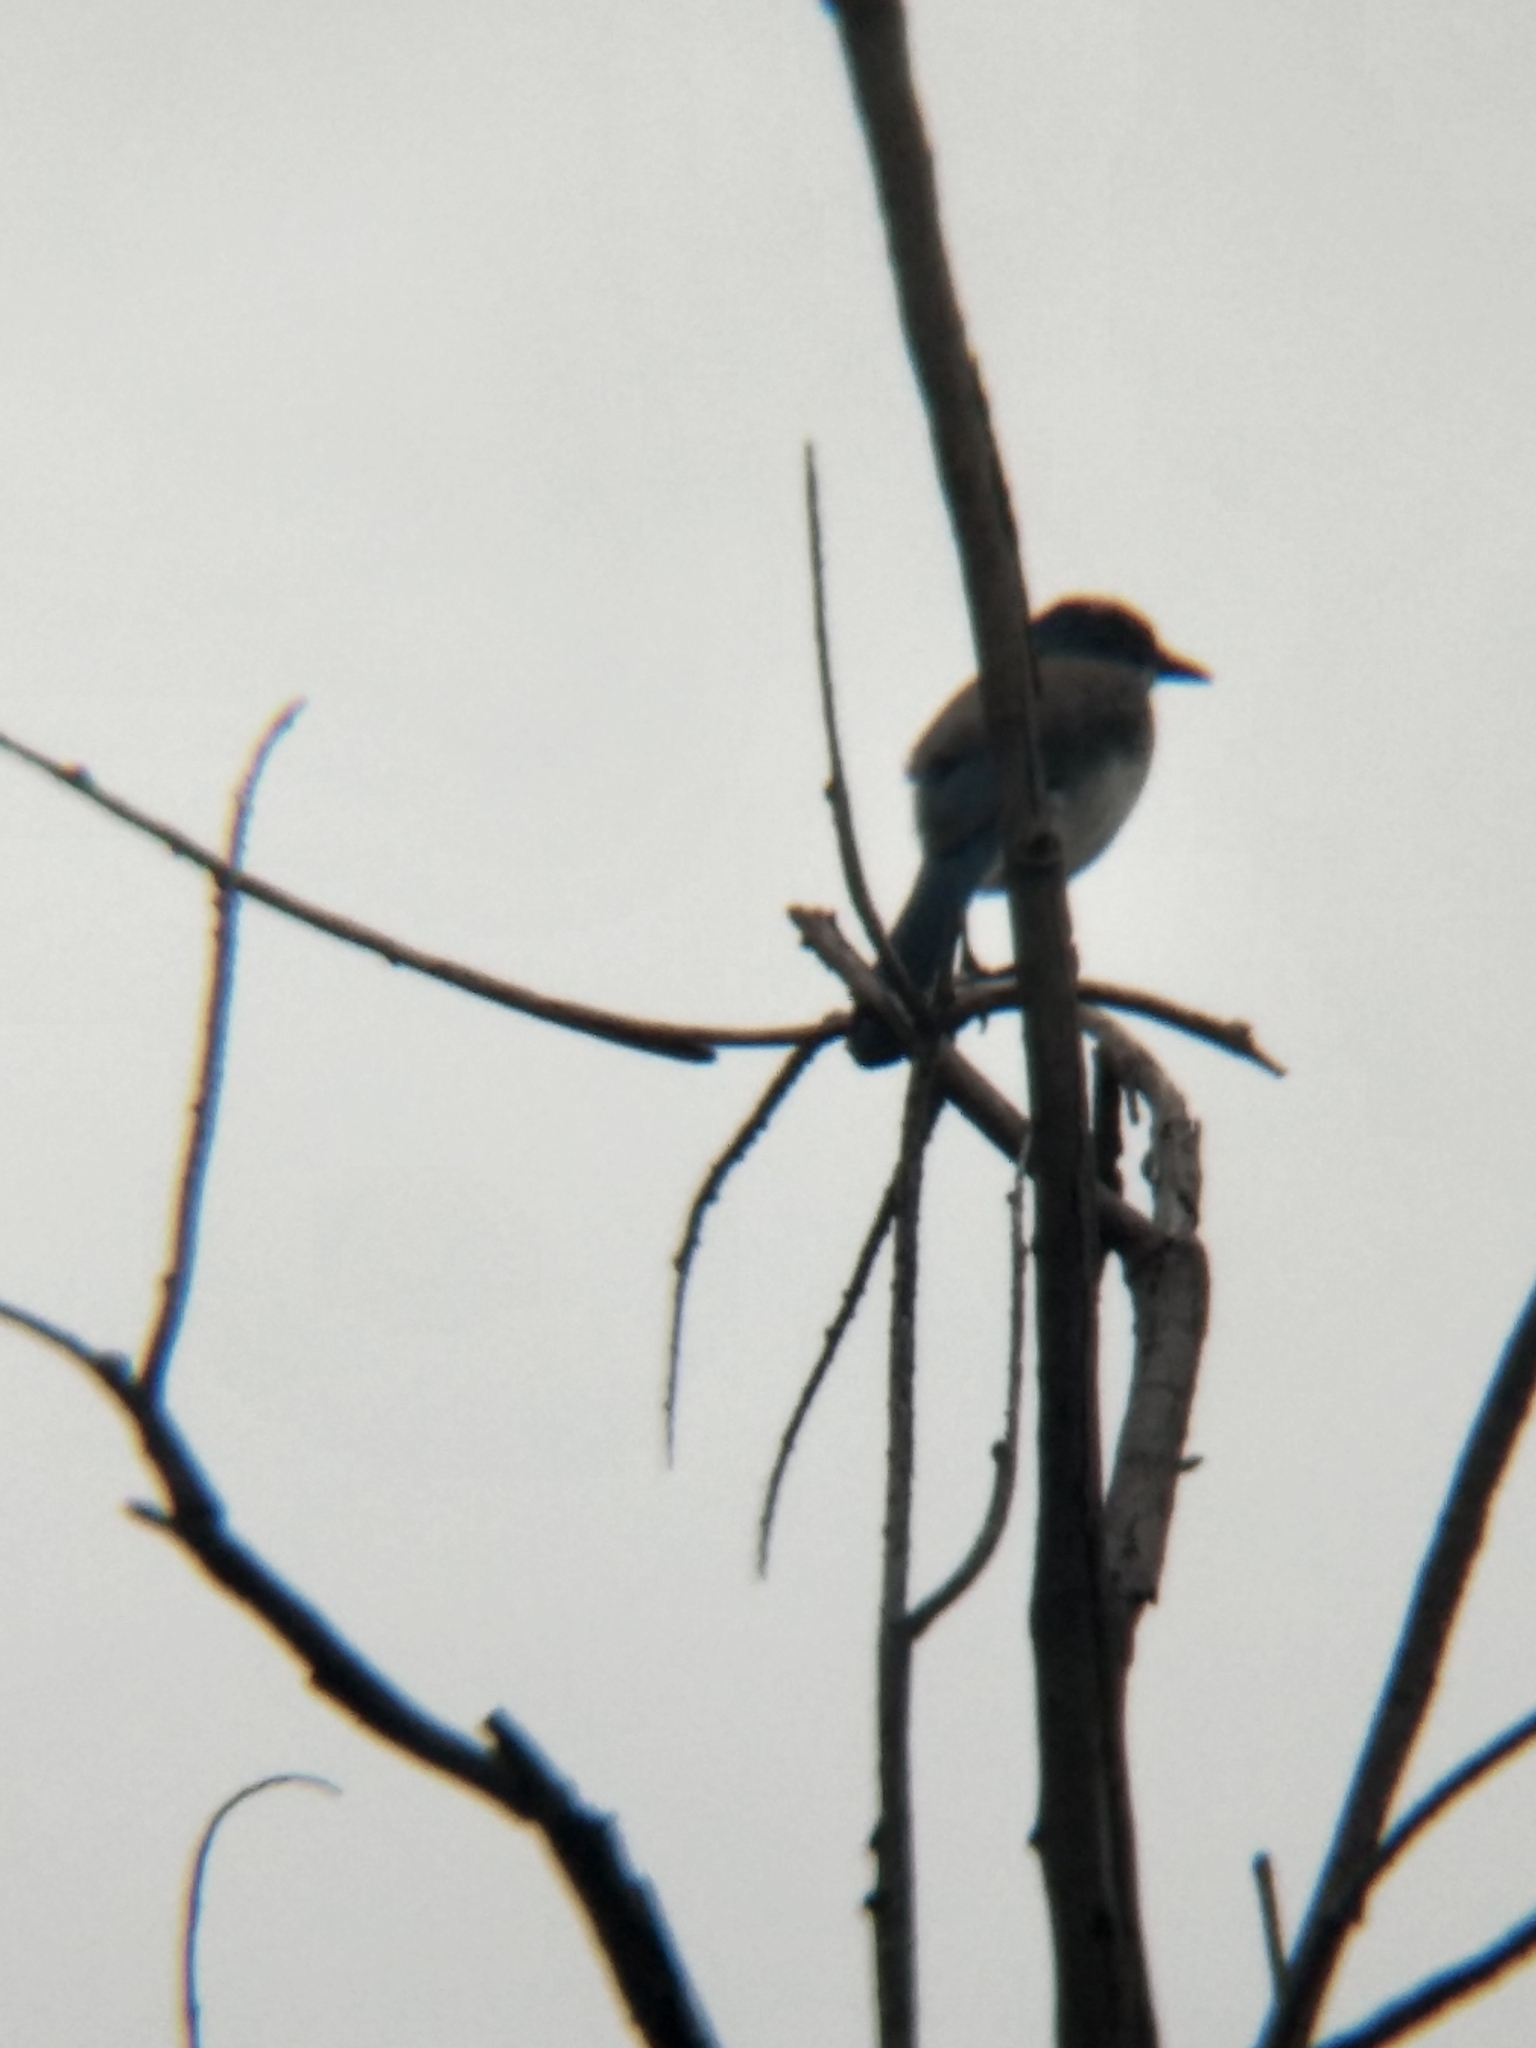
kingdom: Animalia
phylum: Chordata
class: Aves
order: Passeriformes
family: Corvidae
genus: Aphelocoma
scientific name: Aphelocoma californica
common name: California scrub-jay
